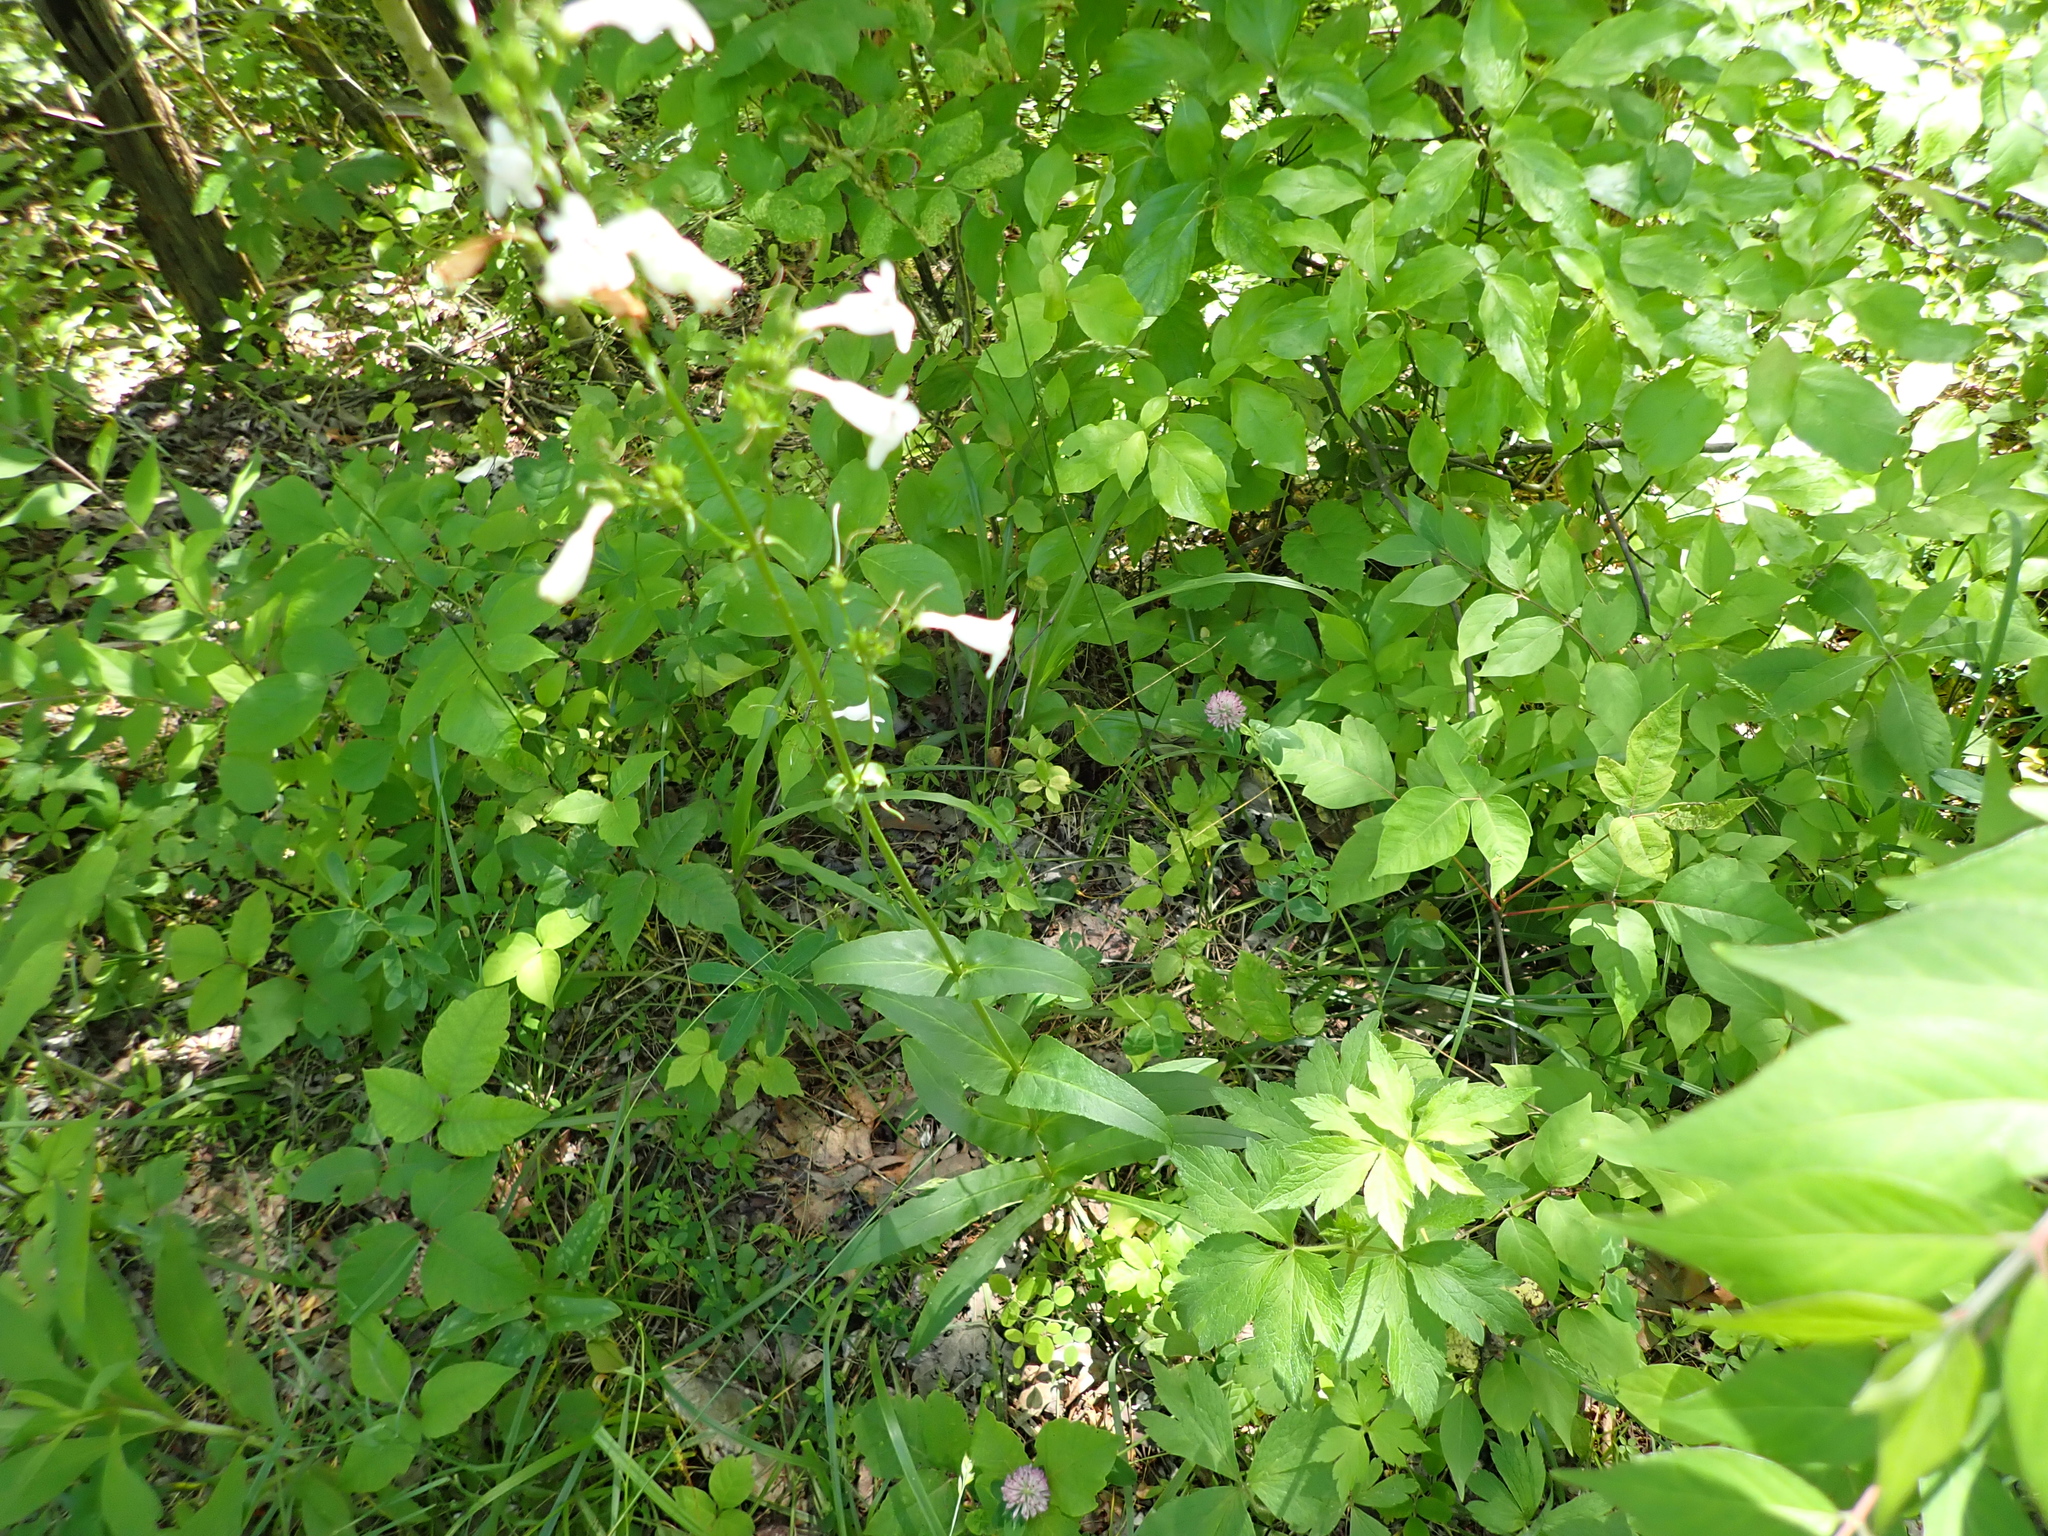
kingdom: Plantae
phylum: Tracheophyta
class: Magnoliopsida
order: Lamiales
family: Plantaginaceae
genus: Penstemon
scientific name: Penstemon digitalis
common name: Foxglove beardtongue
